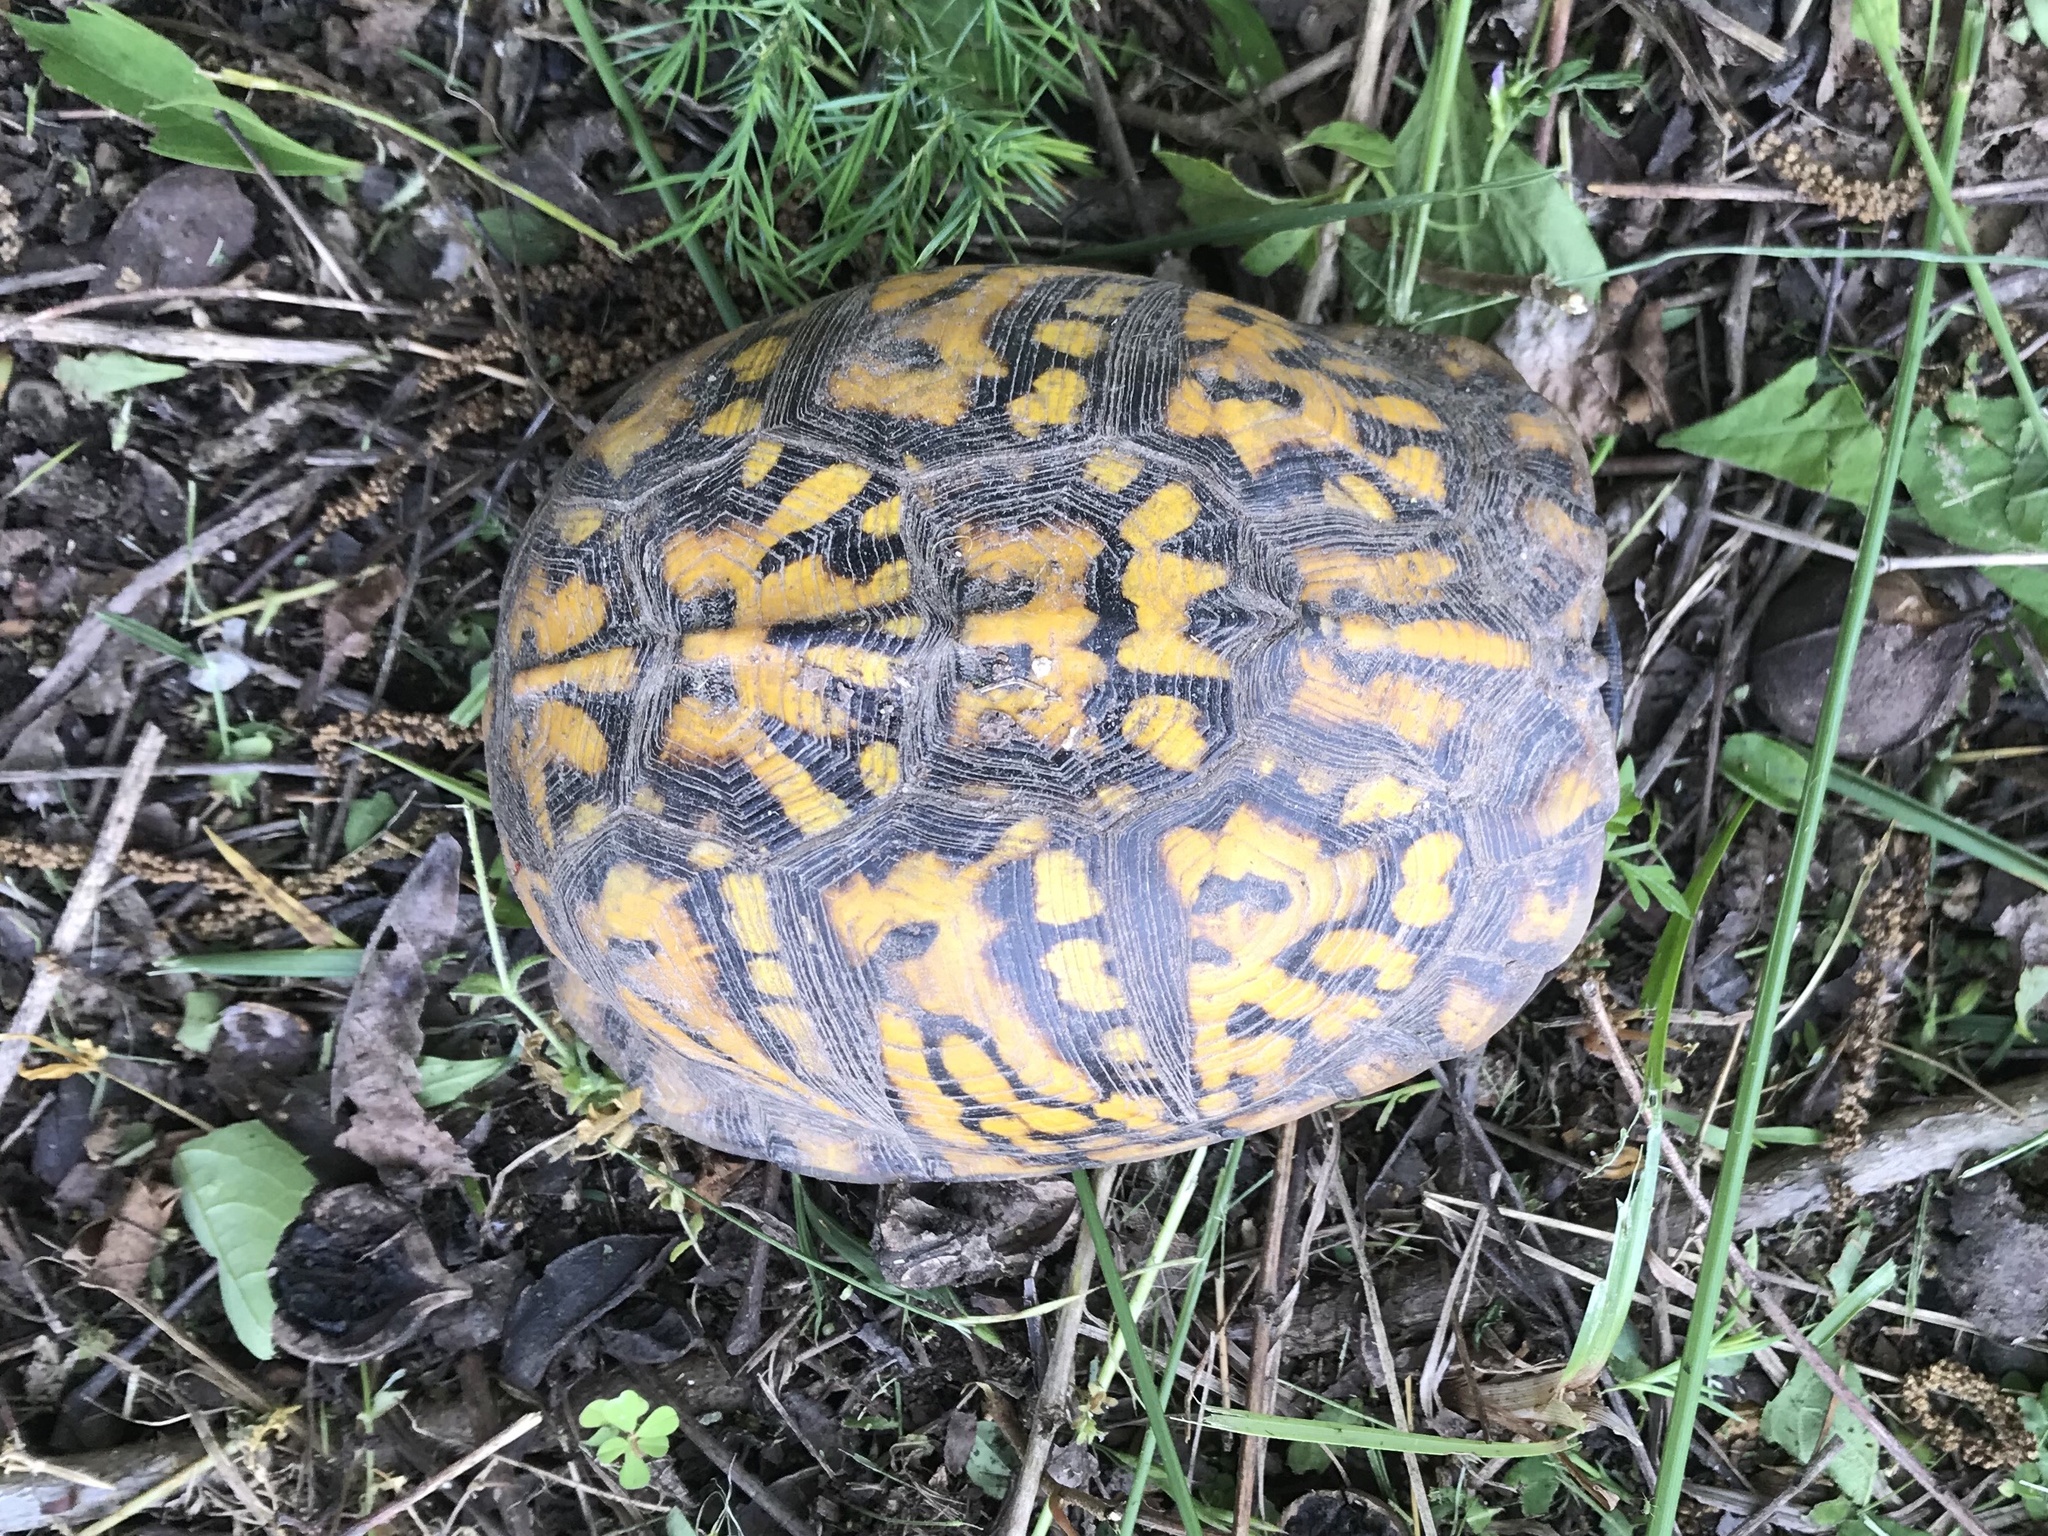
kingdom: Animalia
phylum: Chordata
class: Testudines
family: Emydidae
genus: Terrapene
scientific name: Terrapene carolina
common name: Common box turtle
